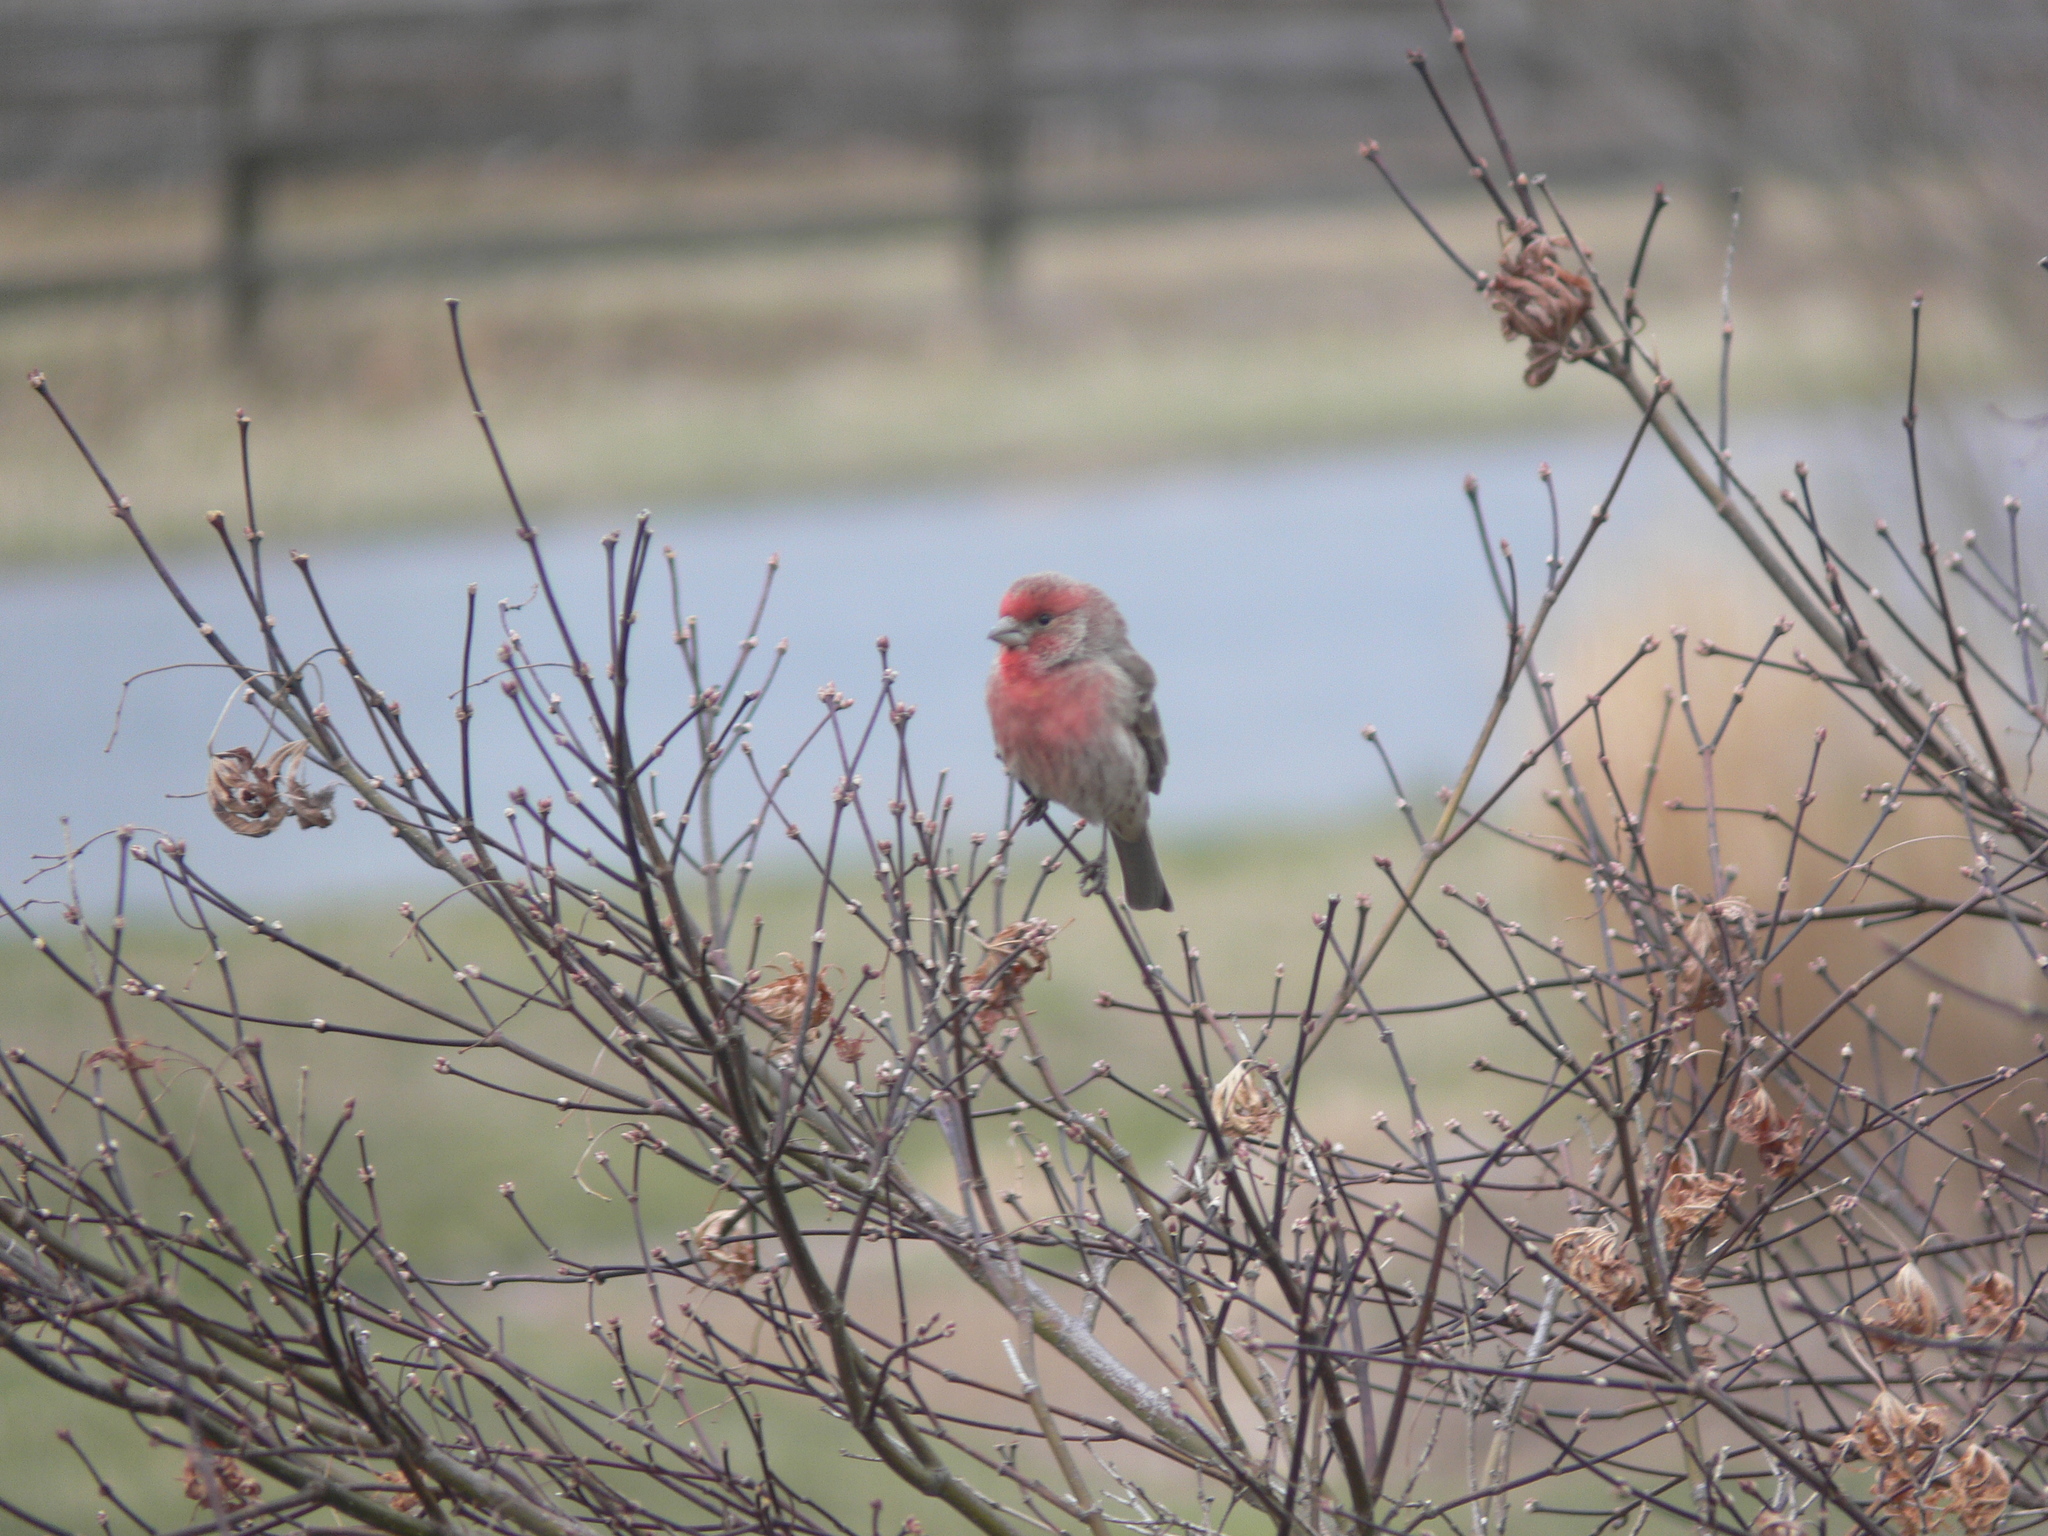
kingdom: Animalia
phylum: Chordata
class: Aves
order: Passeriformes
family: Fringillidae
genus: Haemorhous
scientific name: Haemorhous mexicanus
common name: House finch
